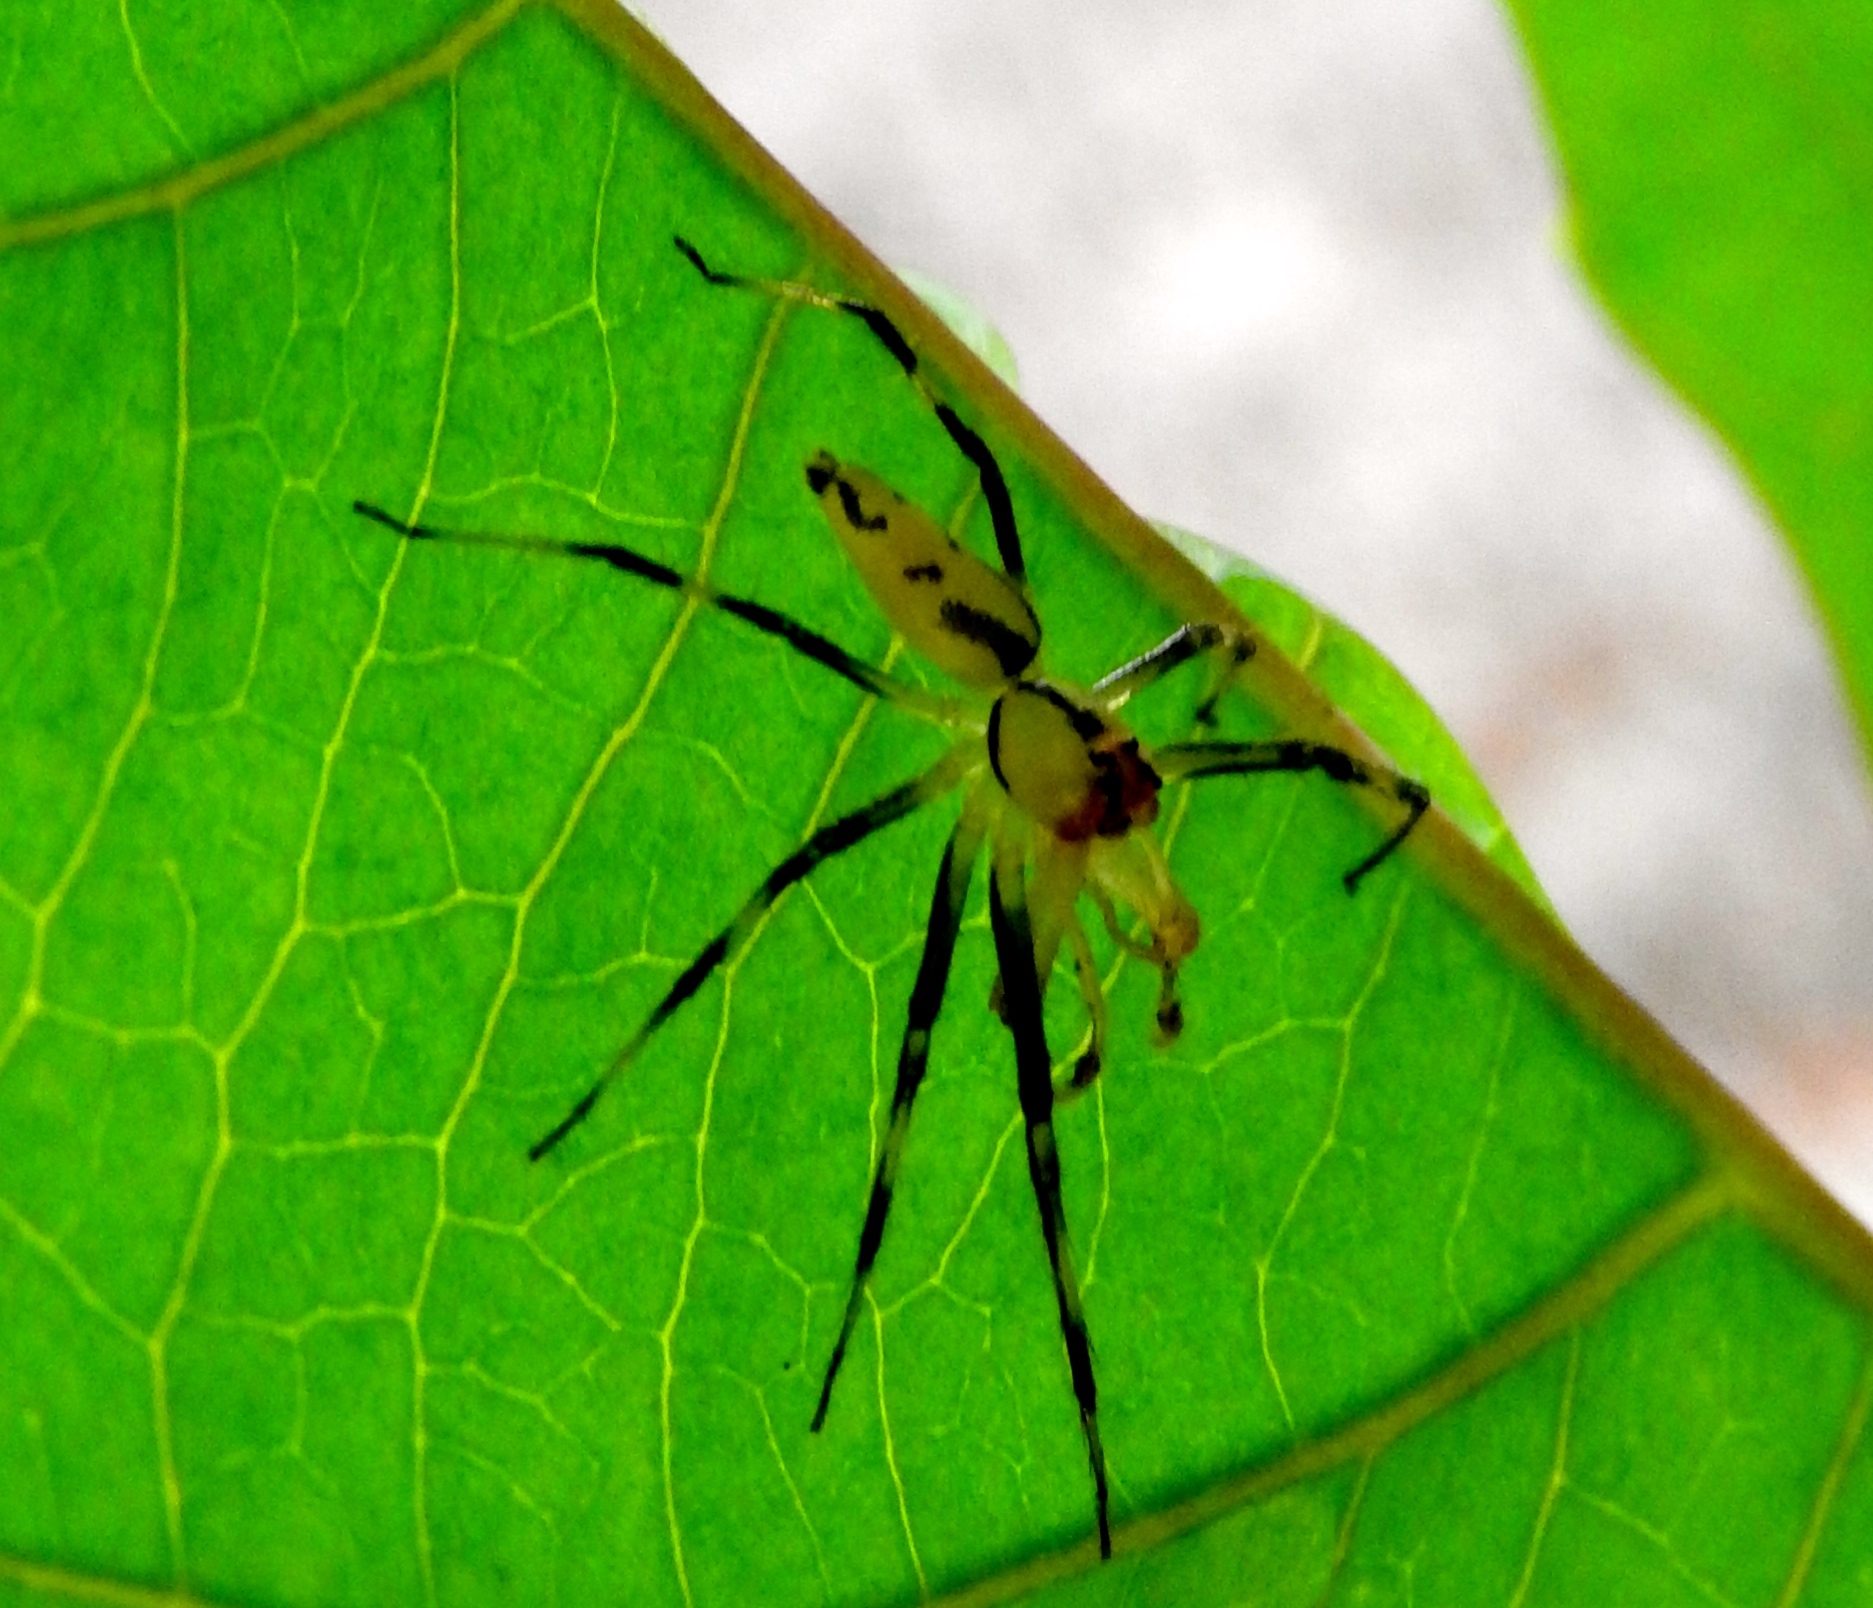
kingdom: Animalia
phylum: Arthropoda
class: Arachnida
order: Araneae
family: Salticidae
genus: Lyssomanes
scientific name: Lyssomanes
